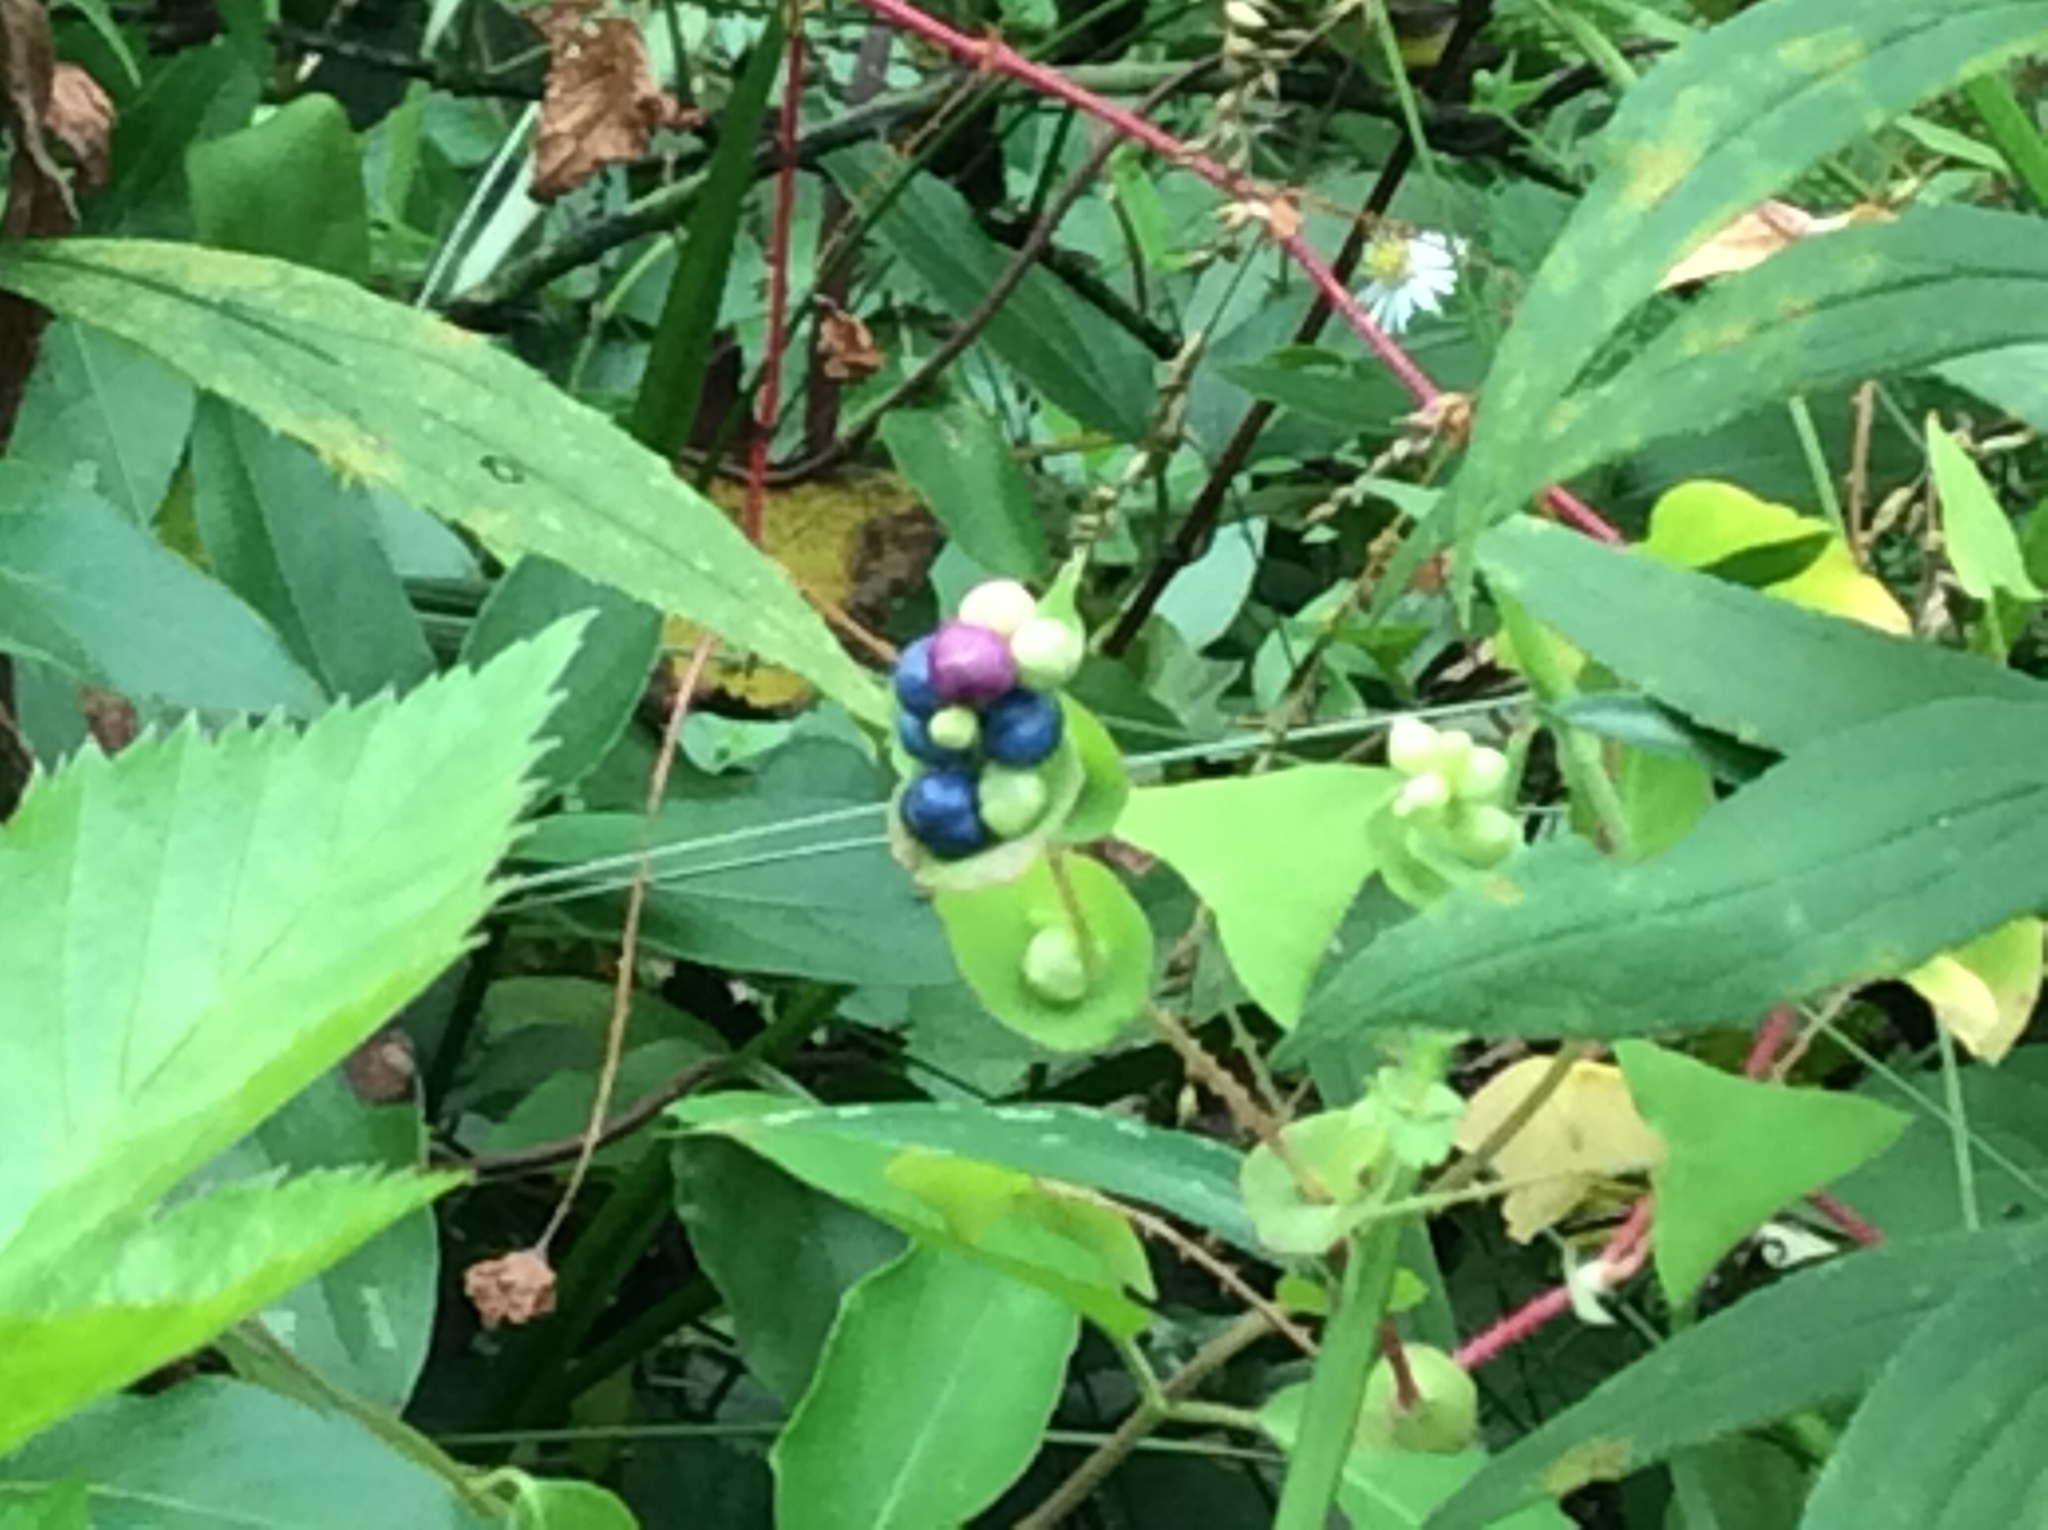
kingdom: Plantae
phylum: Tracheophyta
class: Magnoliopsida
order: Caryophyllales
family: Polygonaceae
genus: Persicaria
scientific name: Persicaria perfoliata
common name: Asiatic tearthumb
